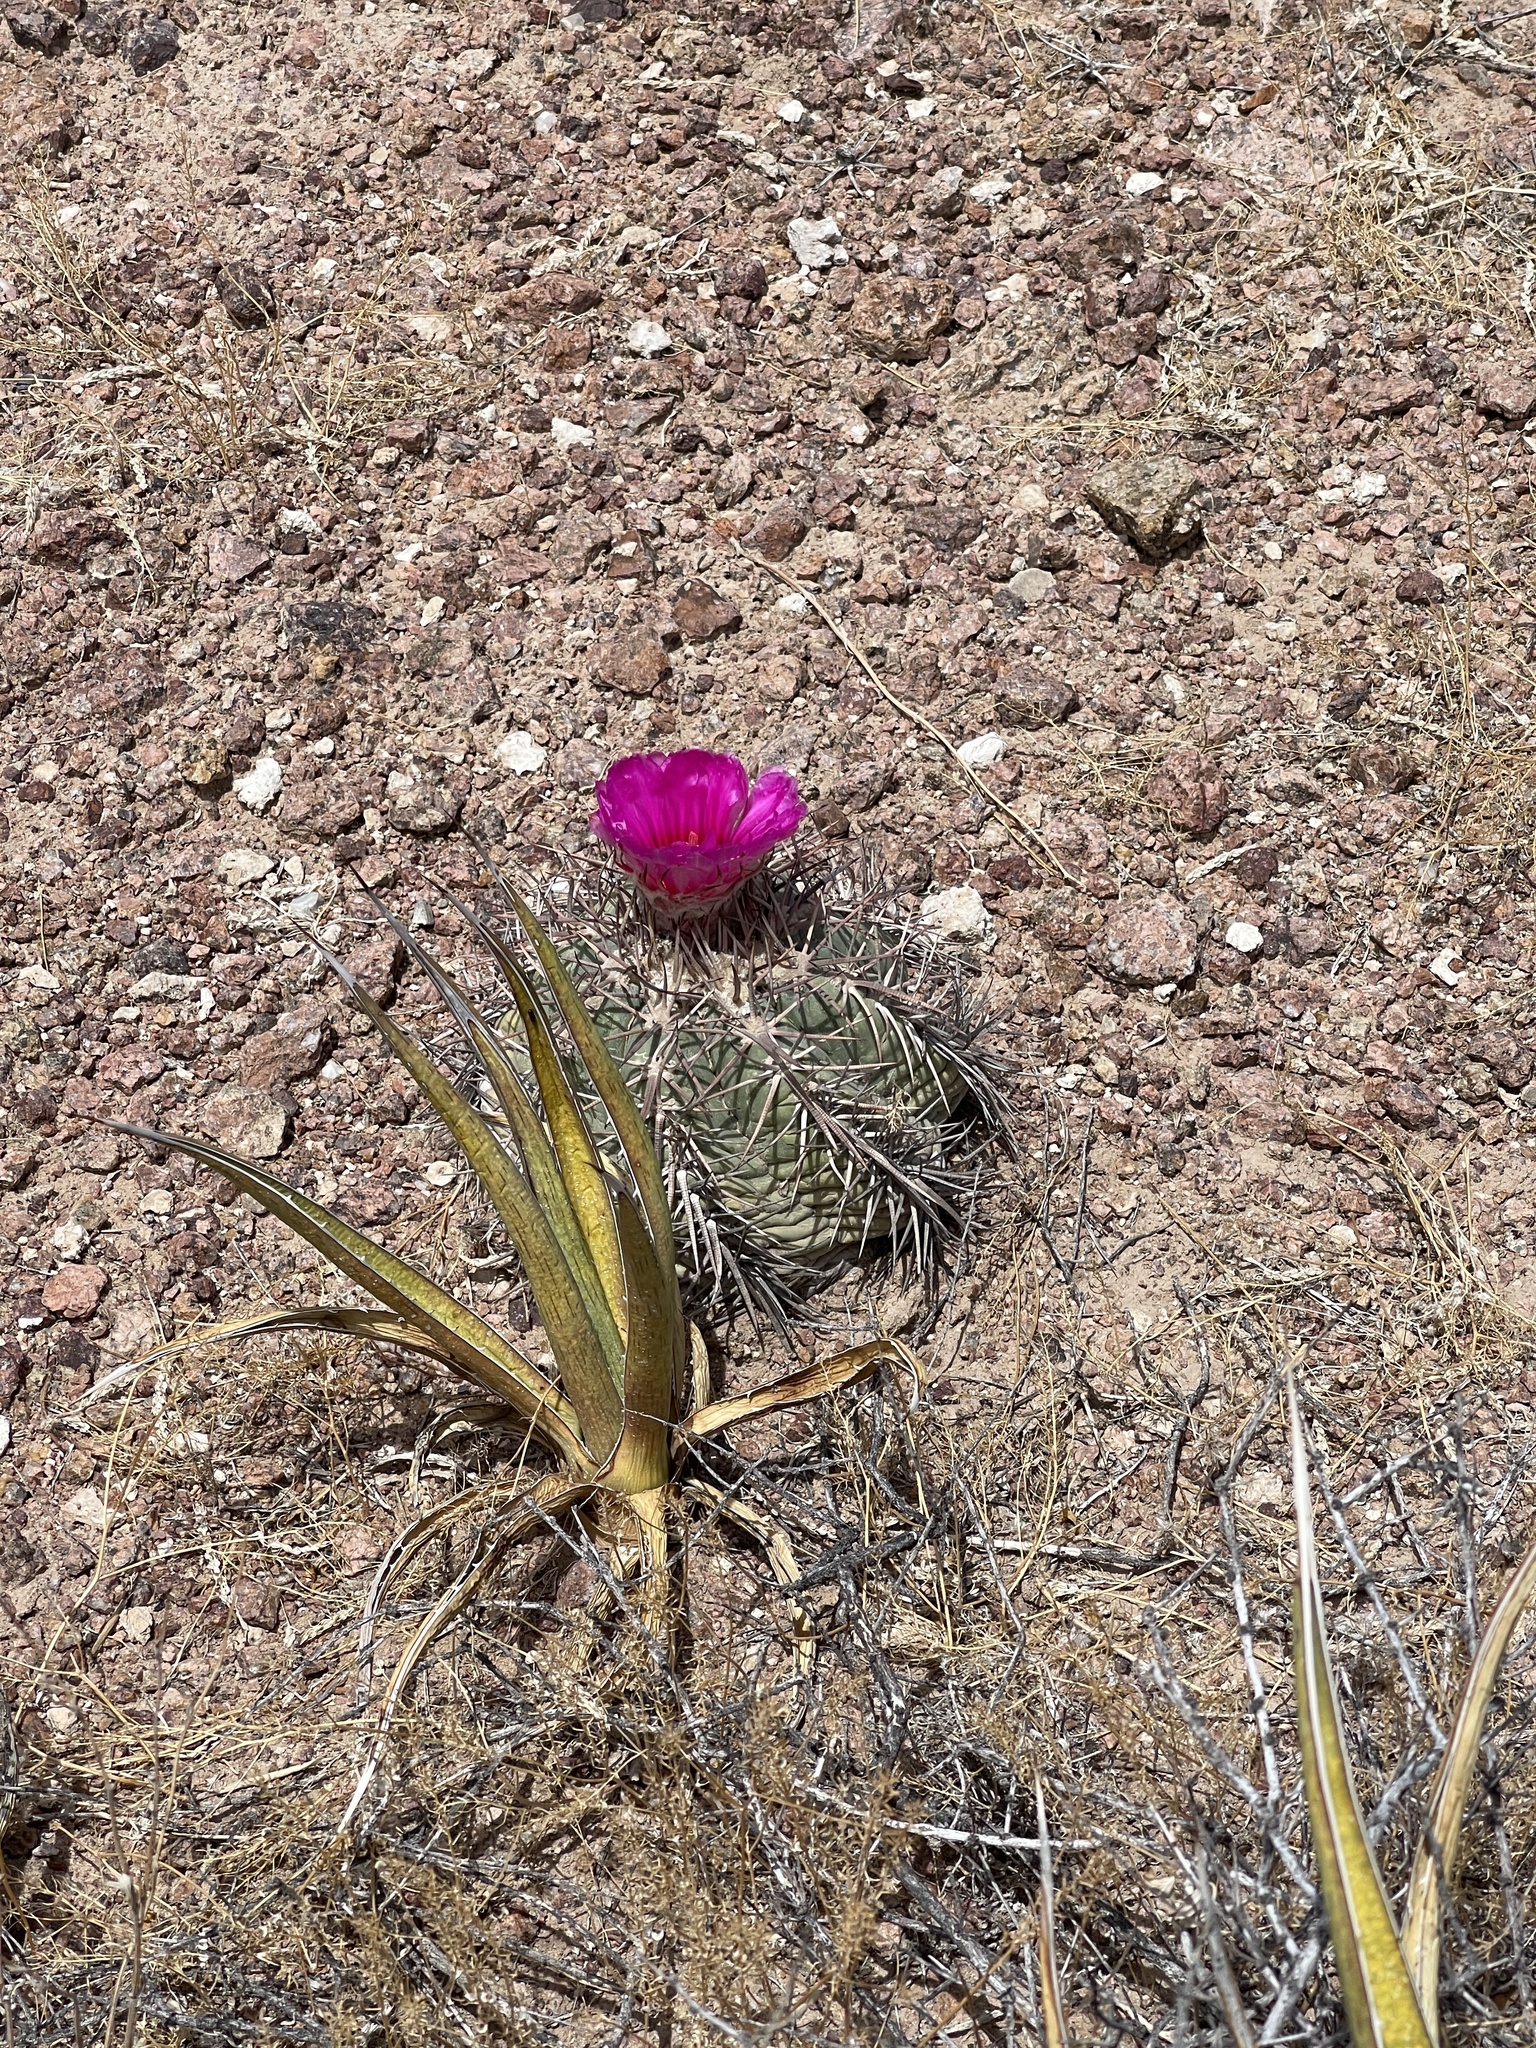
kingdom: Plantae
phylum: Tracheophyta
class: Magnoliopsida
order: Caryophyllales
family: Cactaceae
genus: Echinocactus
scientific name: Echinocactus horizonthalonius
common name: Devilshead
